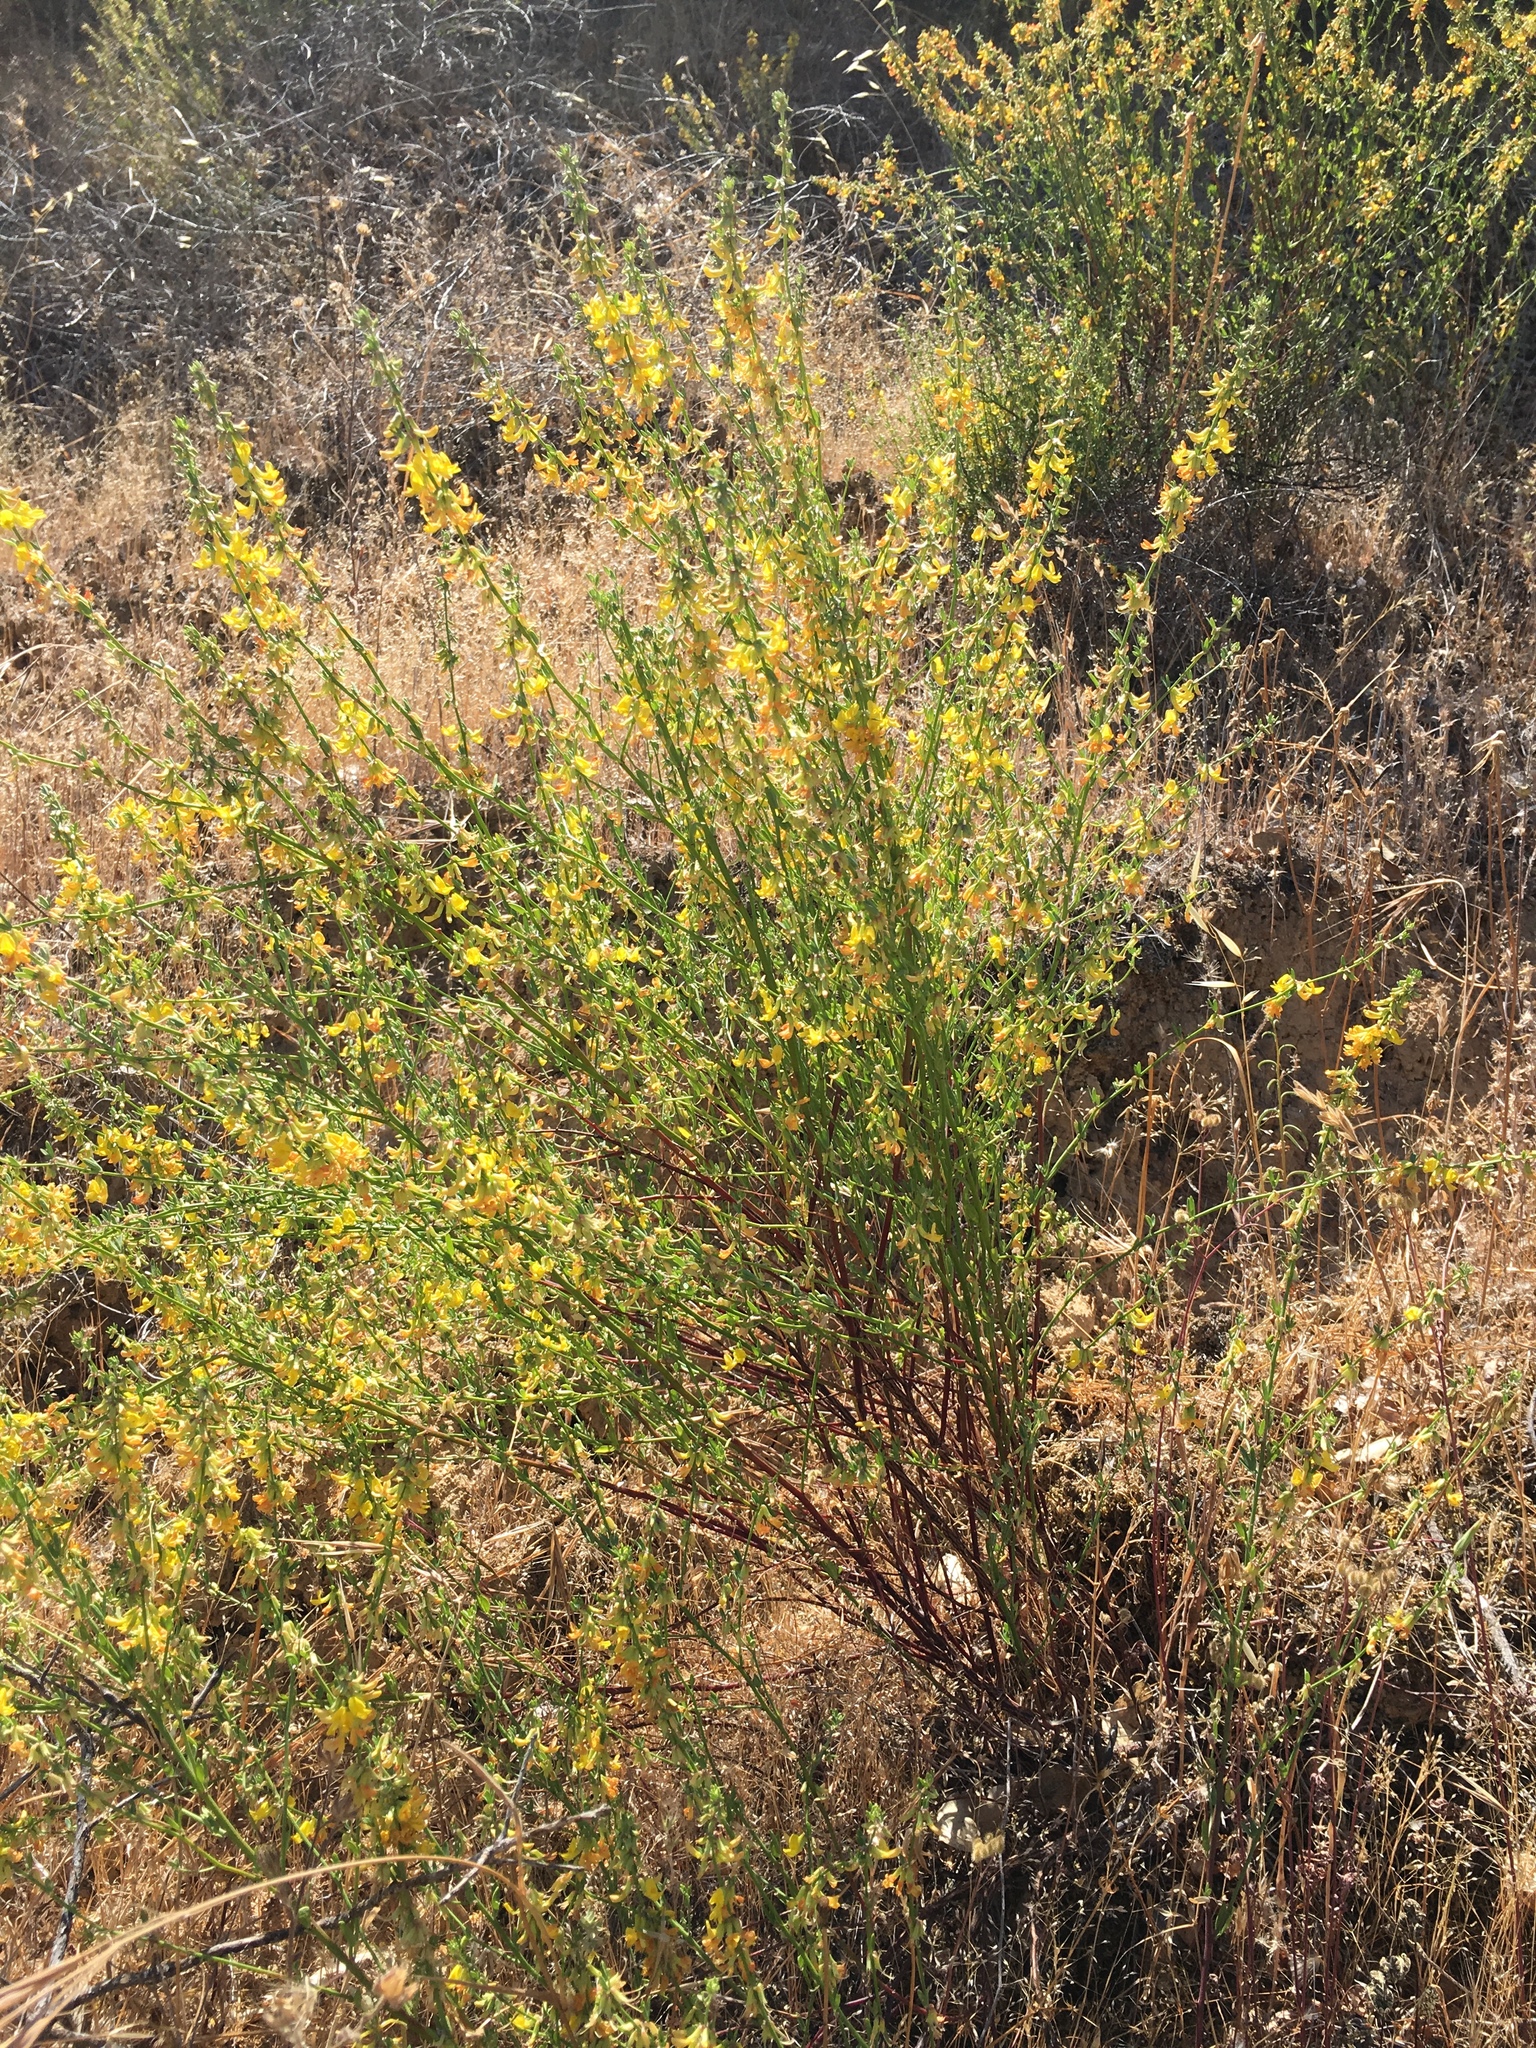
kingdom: Plantae
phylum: Tracheophyta
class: Magnoliopsida
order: Fabales
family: Fabaceae
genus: Acmispon
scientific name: Acmispon glaber
